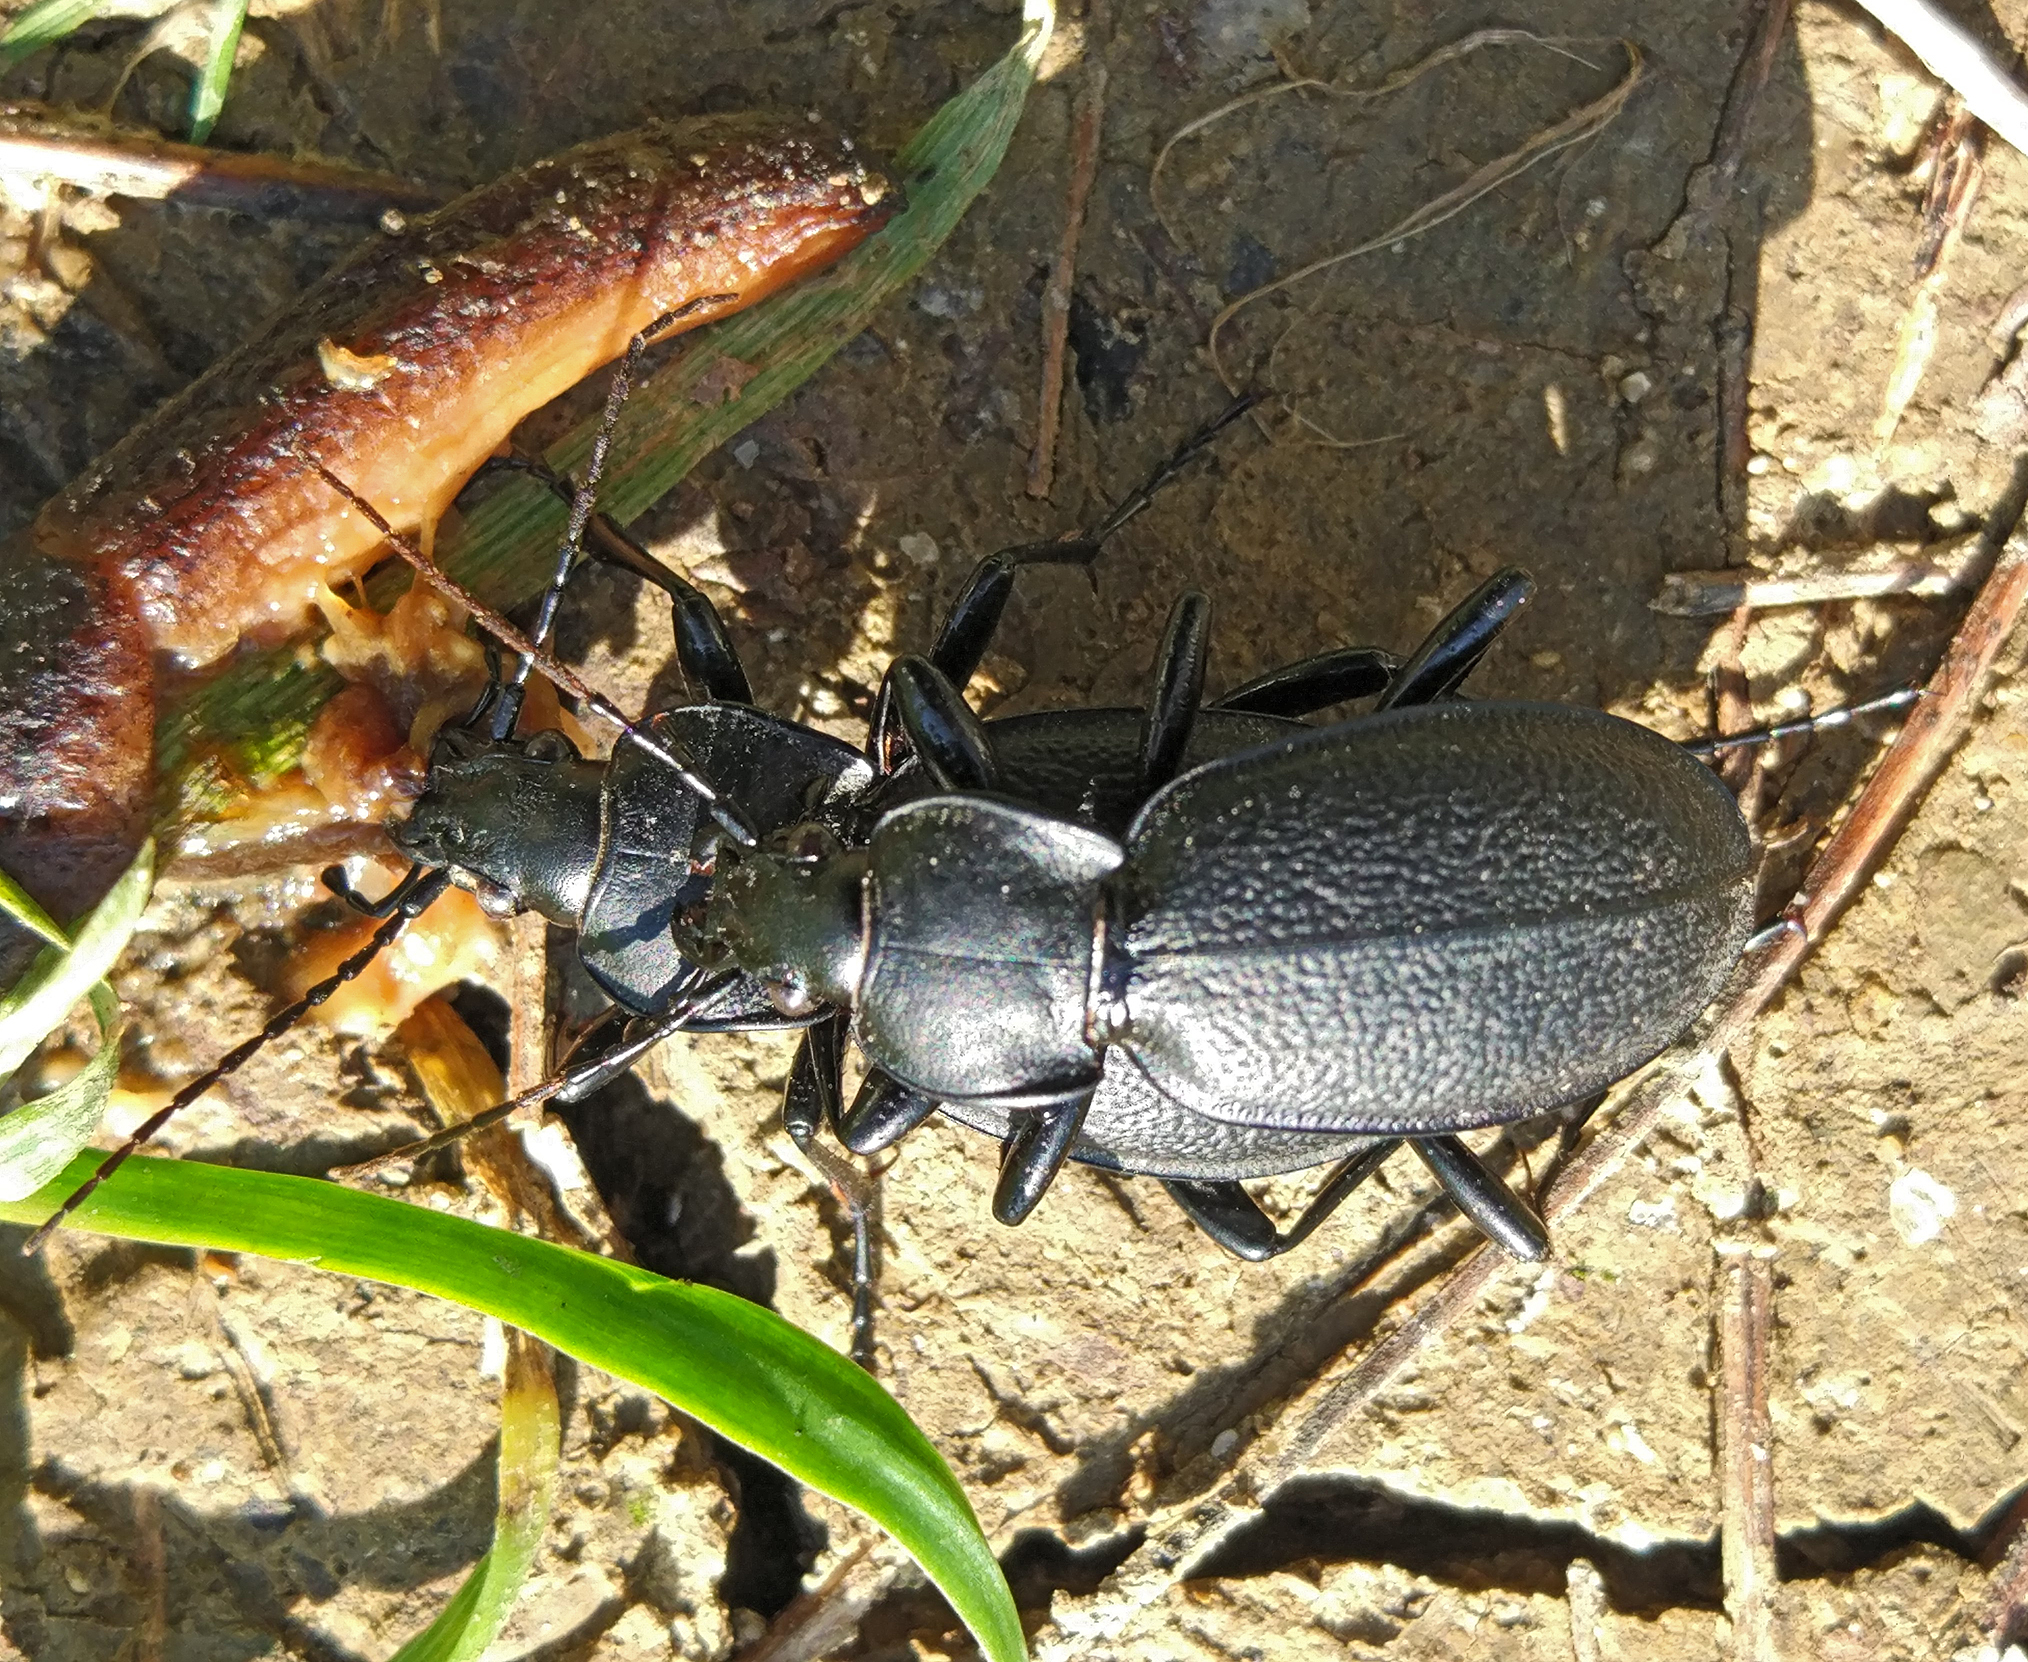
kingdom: Animalia
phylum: Arthropoda
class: Insecta
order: Coleoptera
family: Carabidae
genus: Carabus
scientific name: Carabus coriaceus
